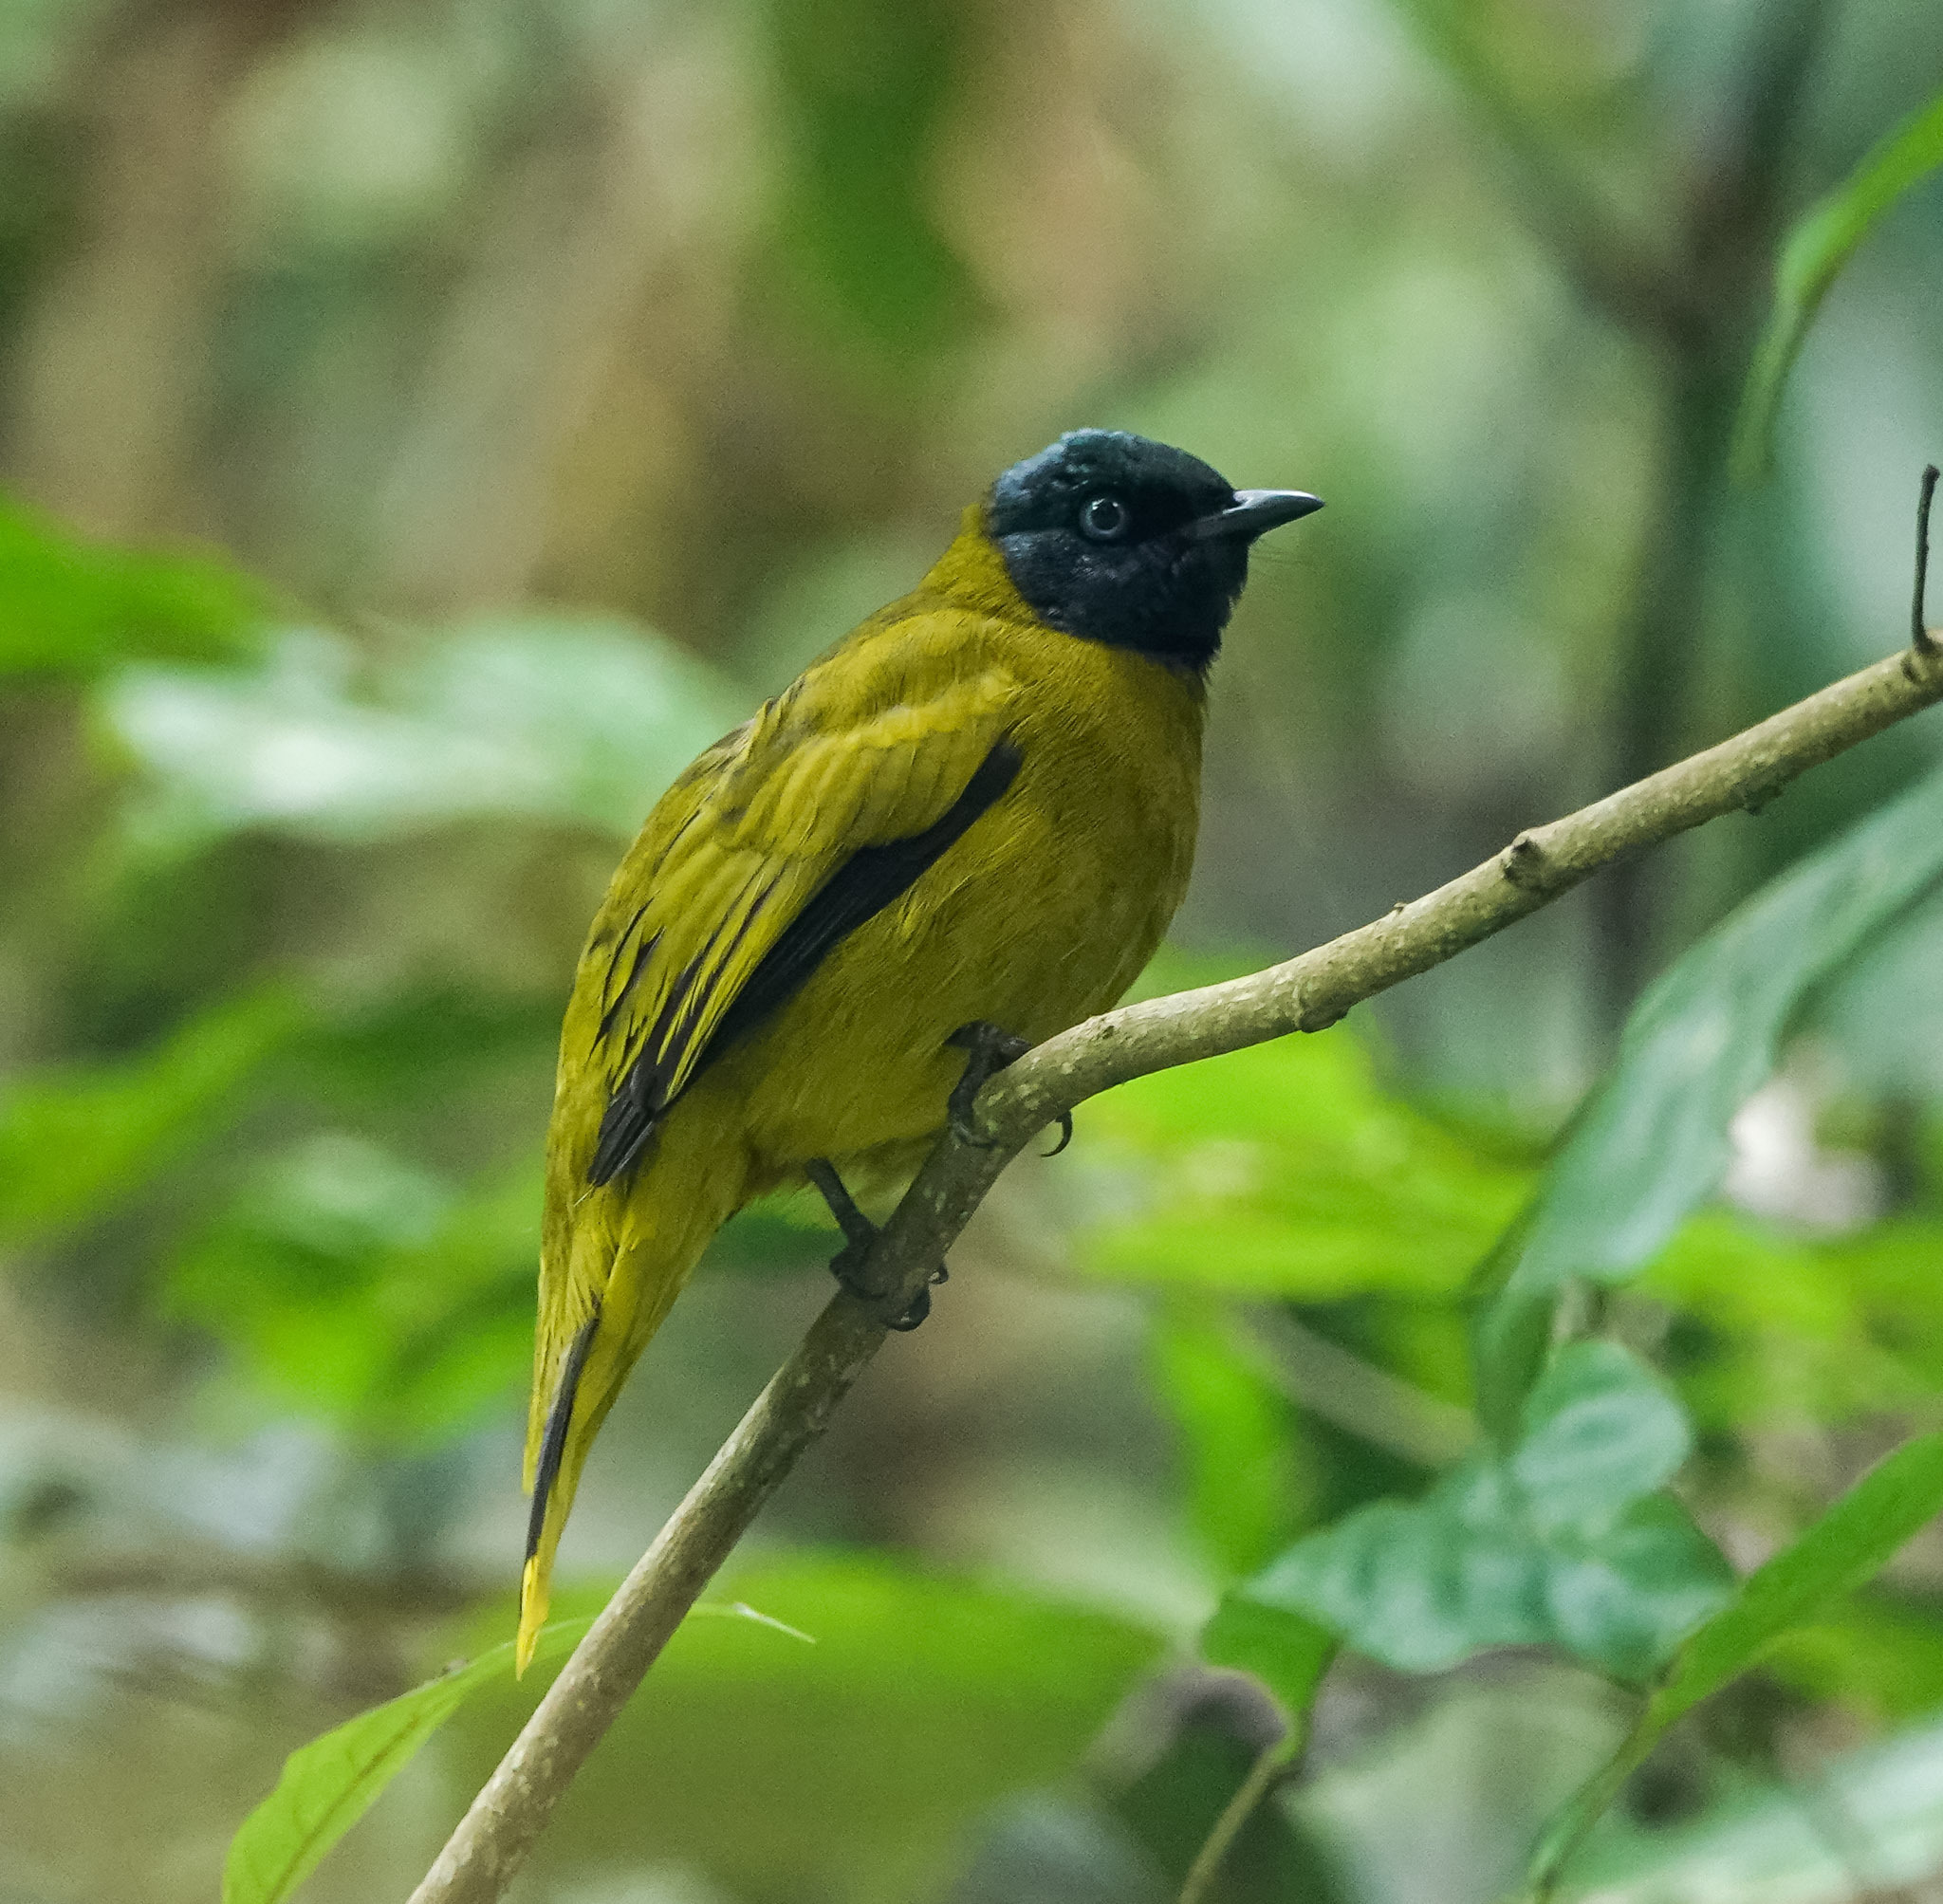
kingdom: Animalia
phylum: Chordata
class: Aves
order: Passeriformes
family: Pycnonotidae
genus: Microtarsus
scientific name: Microtarsus
